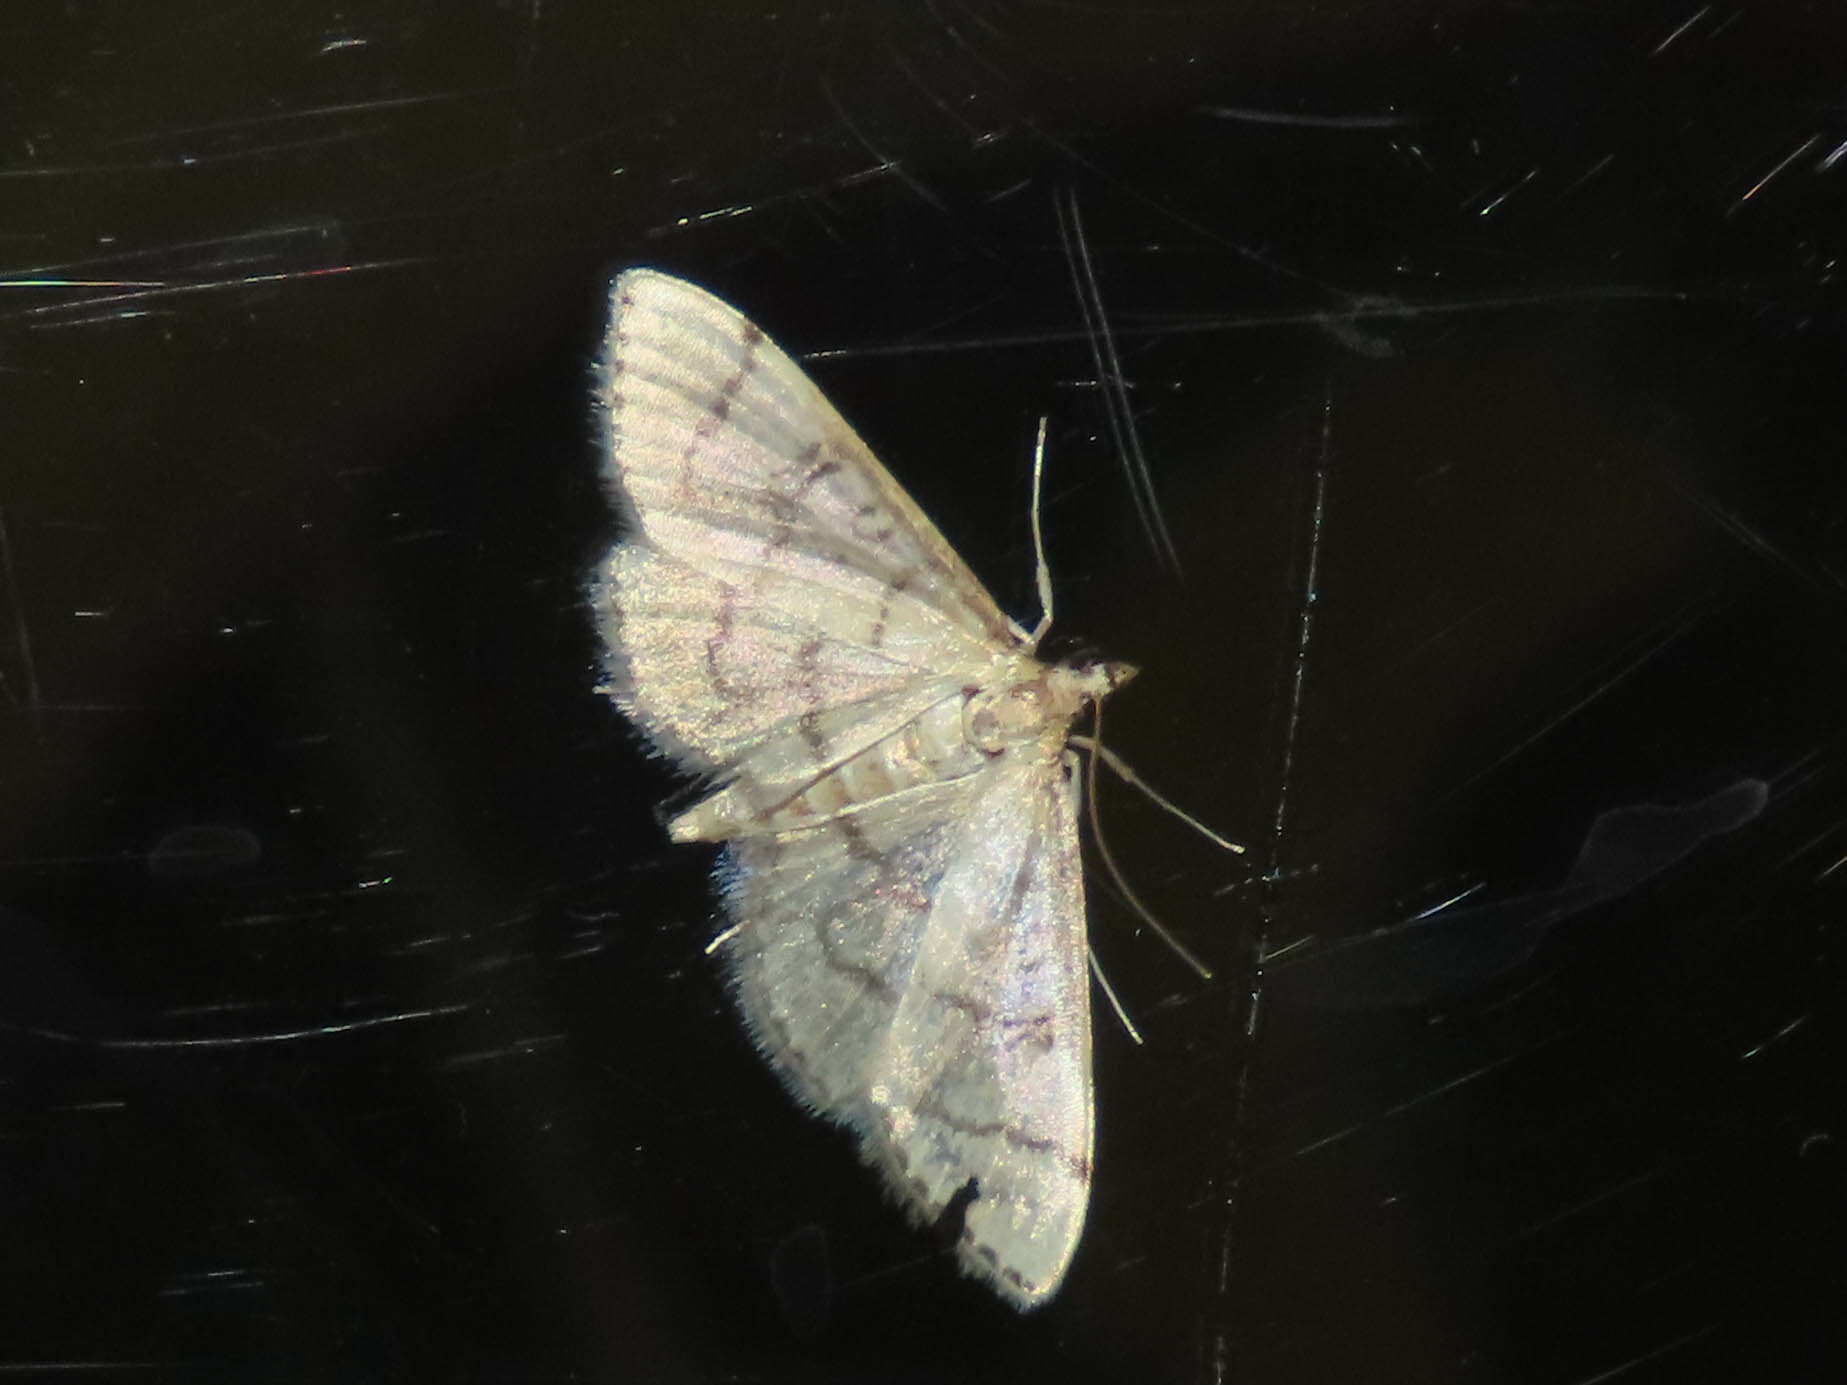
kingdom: Animalia
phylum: Arthropoda
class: Insecta
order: Lepidoptera
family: Crambidae
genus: Lamprosema
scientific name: Lamprosema Blepharomastix ranalis
